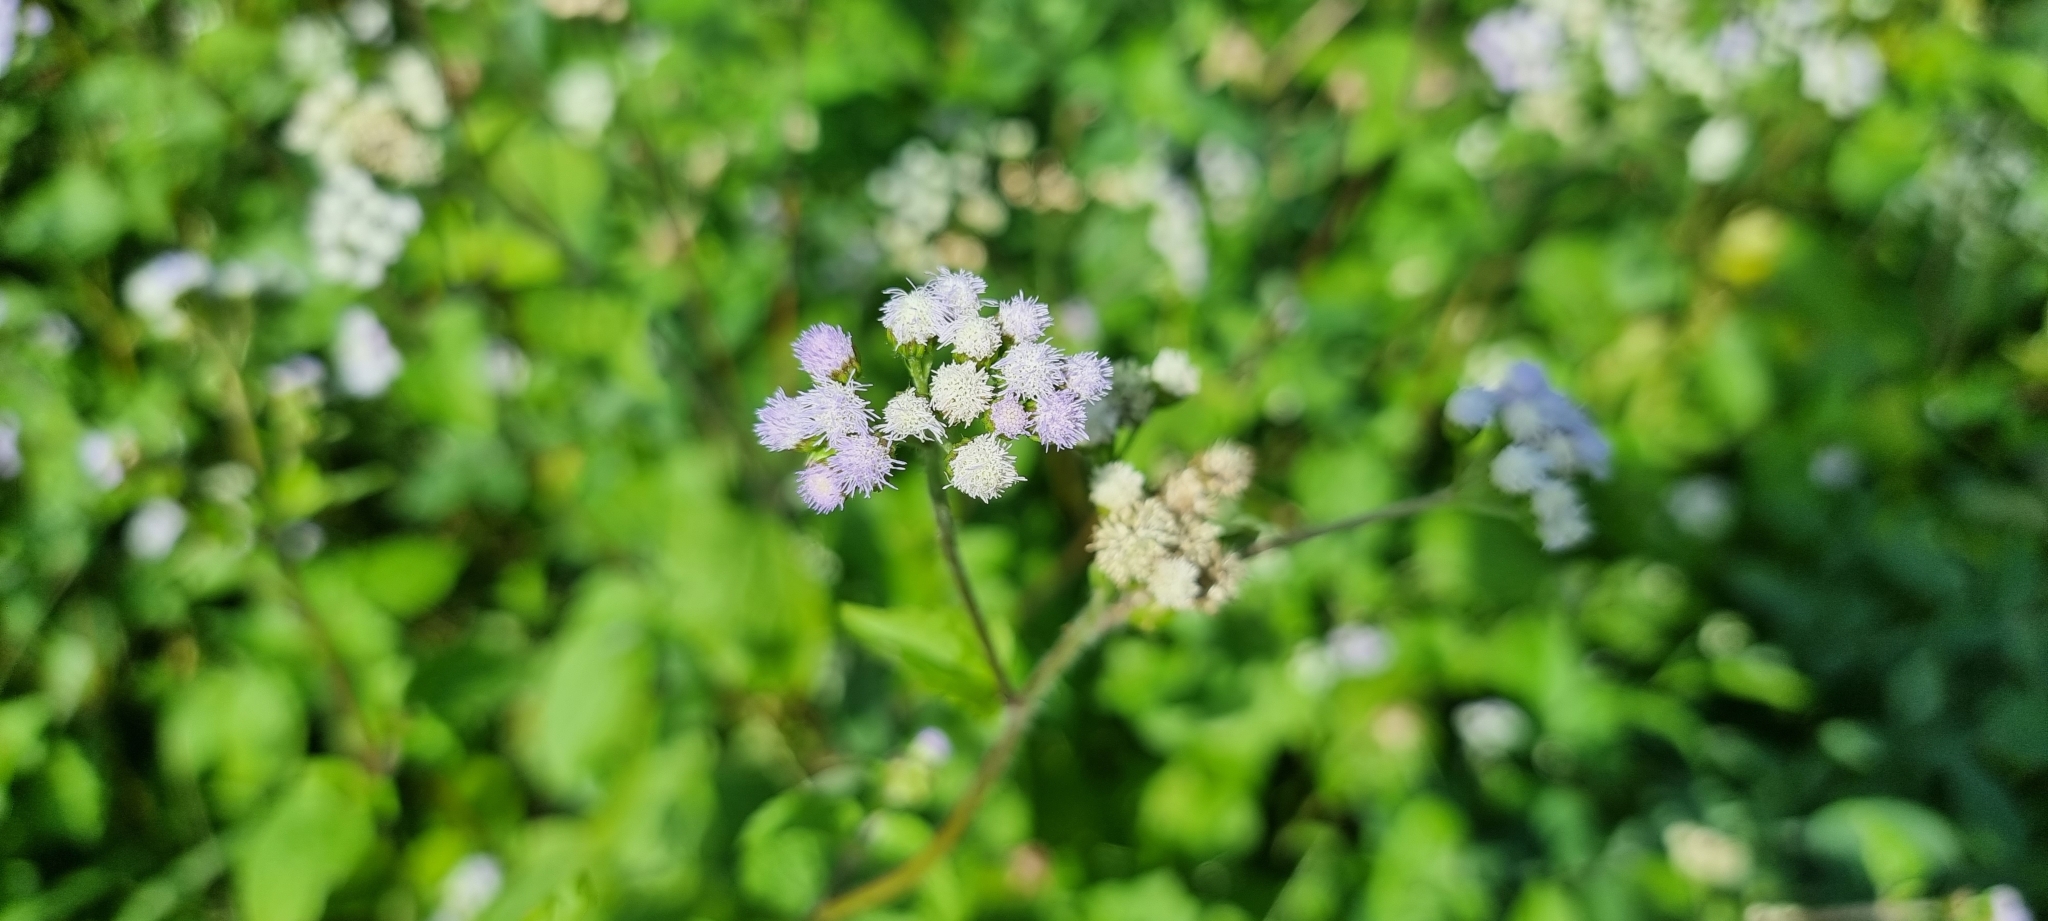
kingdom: Plantae
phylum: Tracheophyta
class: Magnoliopsida
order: Asterales
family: Asteraceae
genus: Ageratum
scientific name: Ageratum conyzoides
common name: Tropical whiteweed
